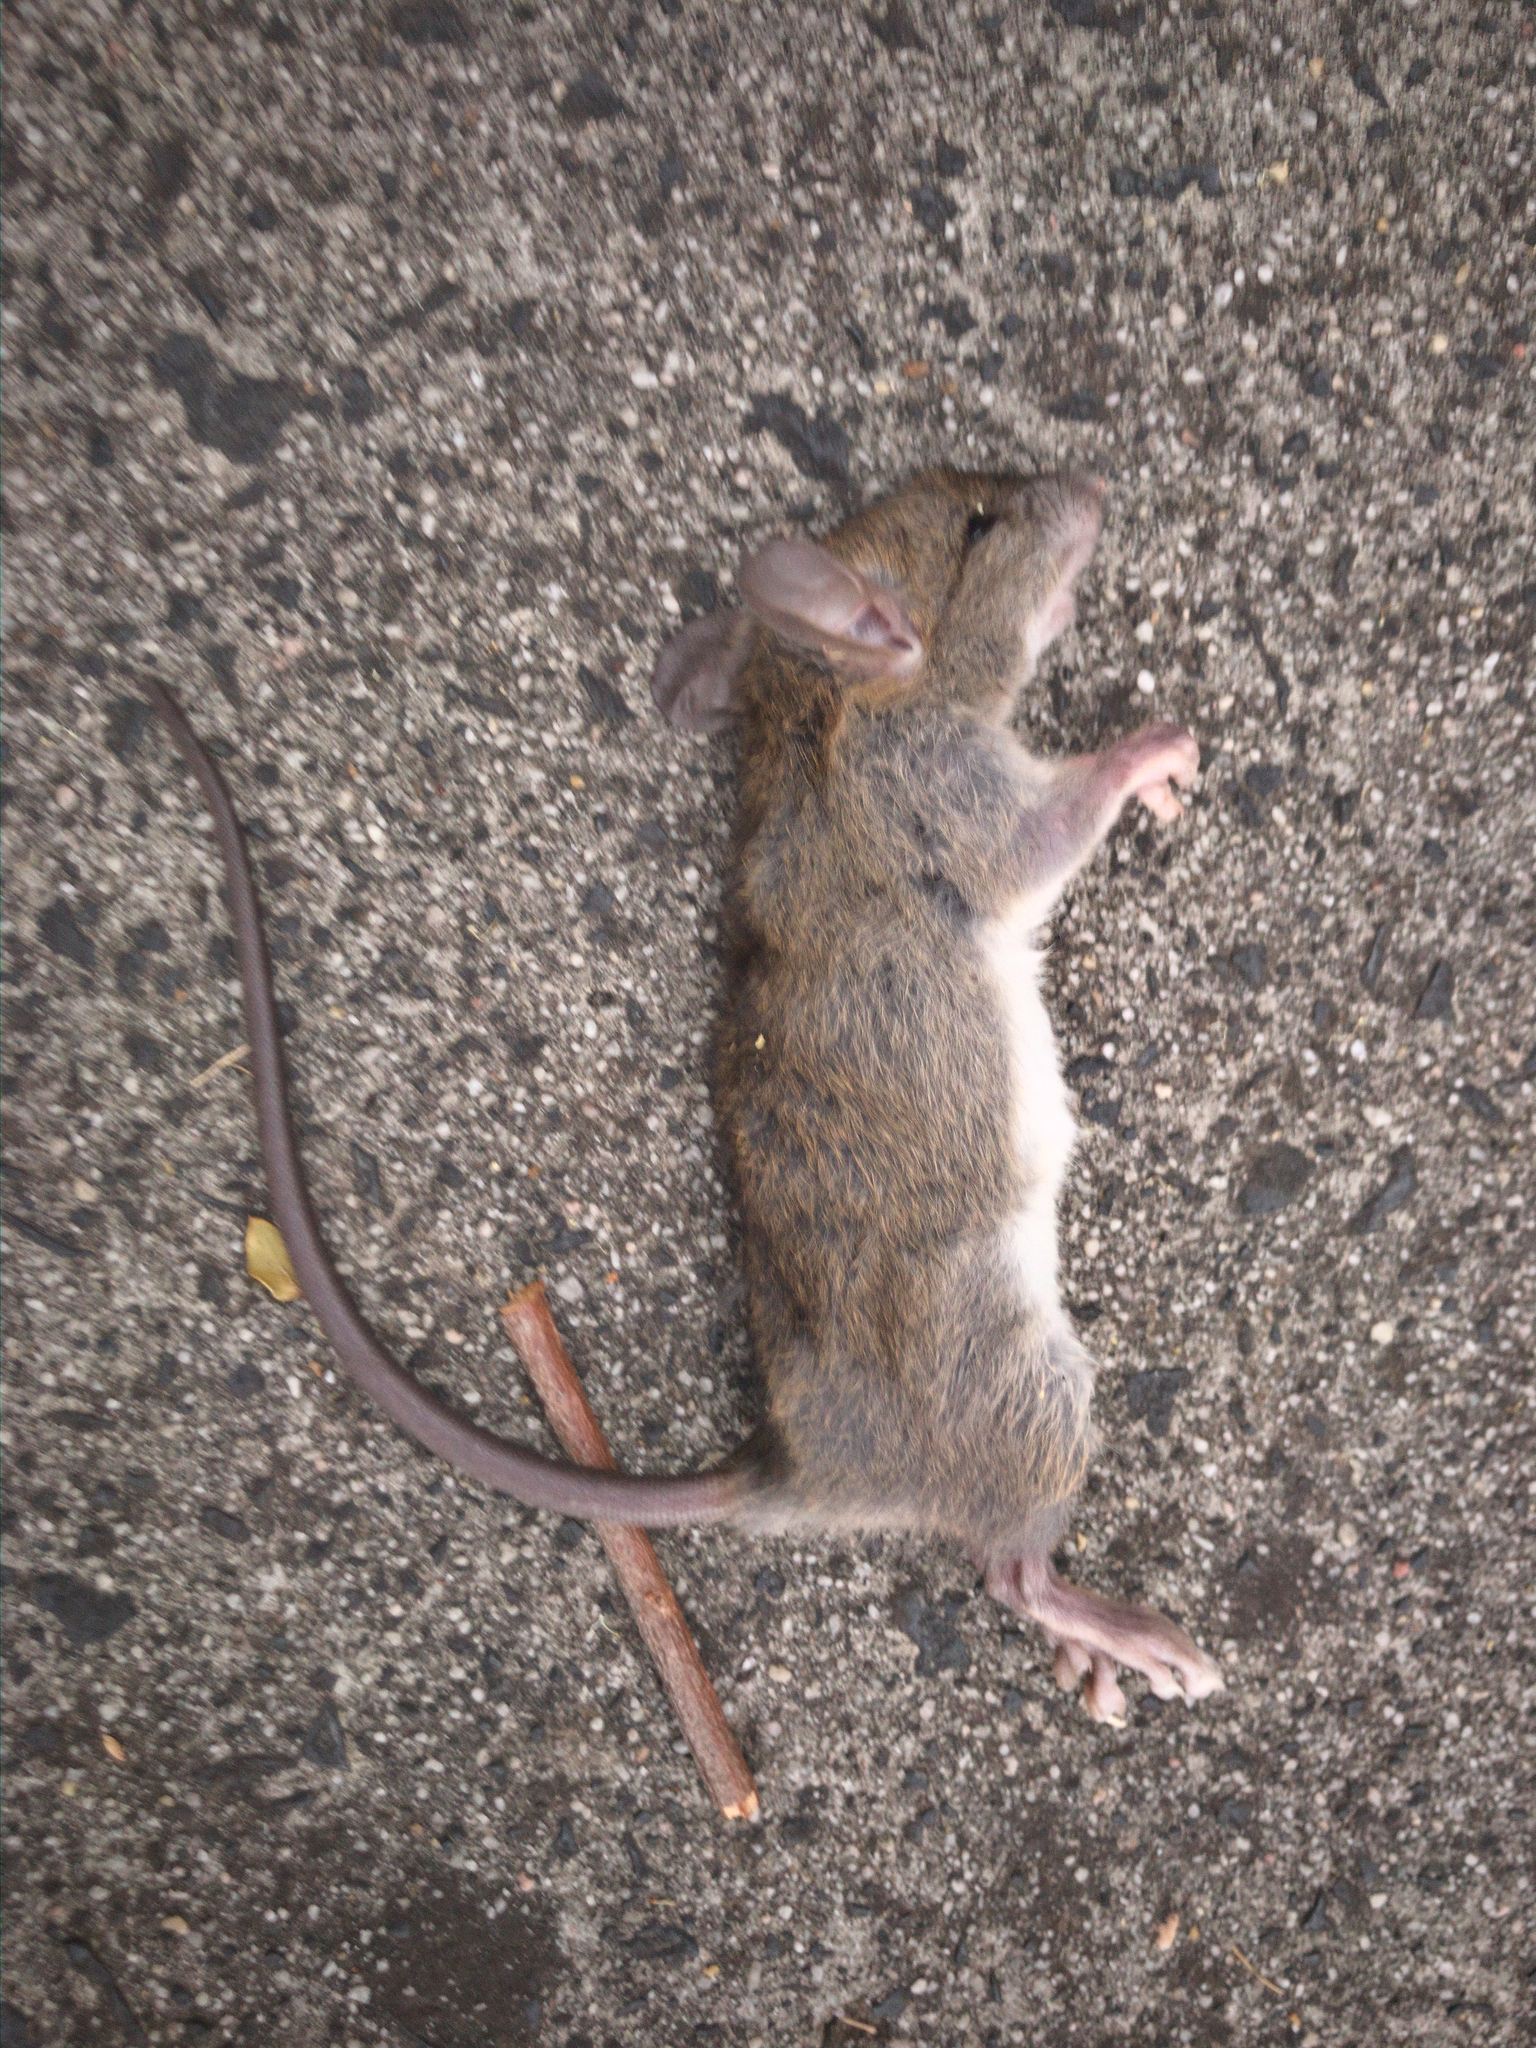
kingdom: Animalia
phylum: Chordata
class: Mammalia
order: Rodentia
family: Muridae
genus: Rattus
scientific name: Rattus rattus
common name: Black rat
